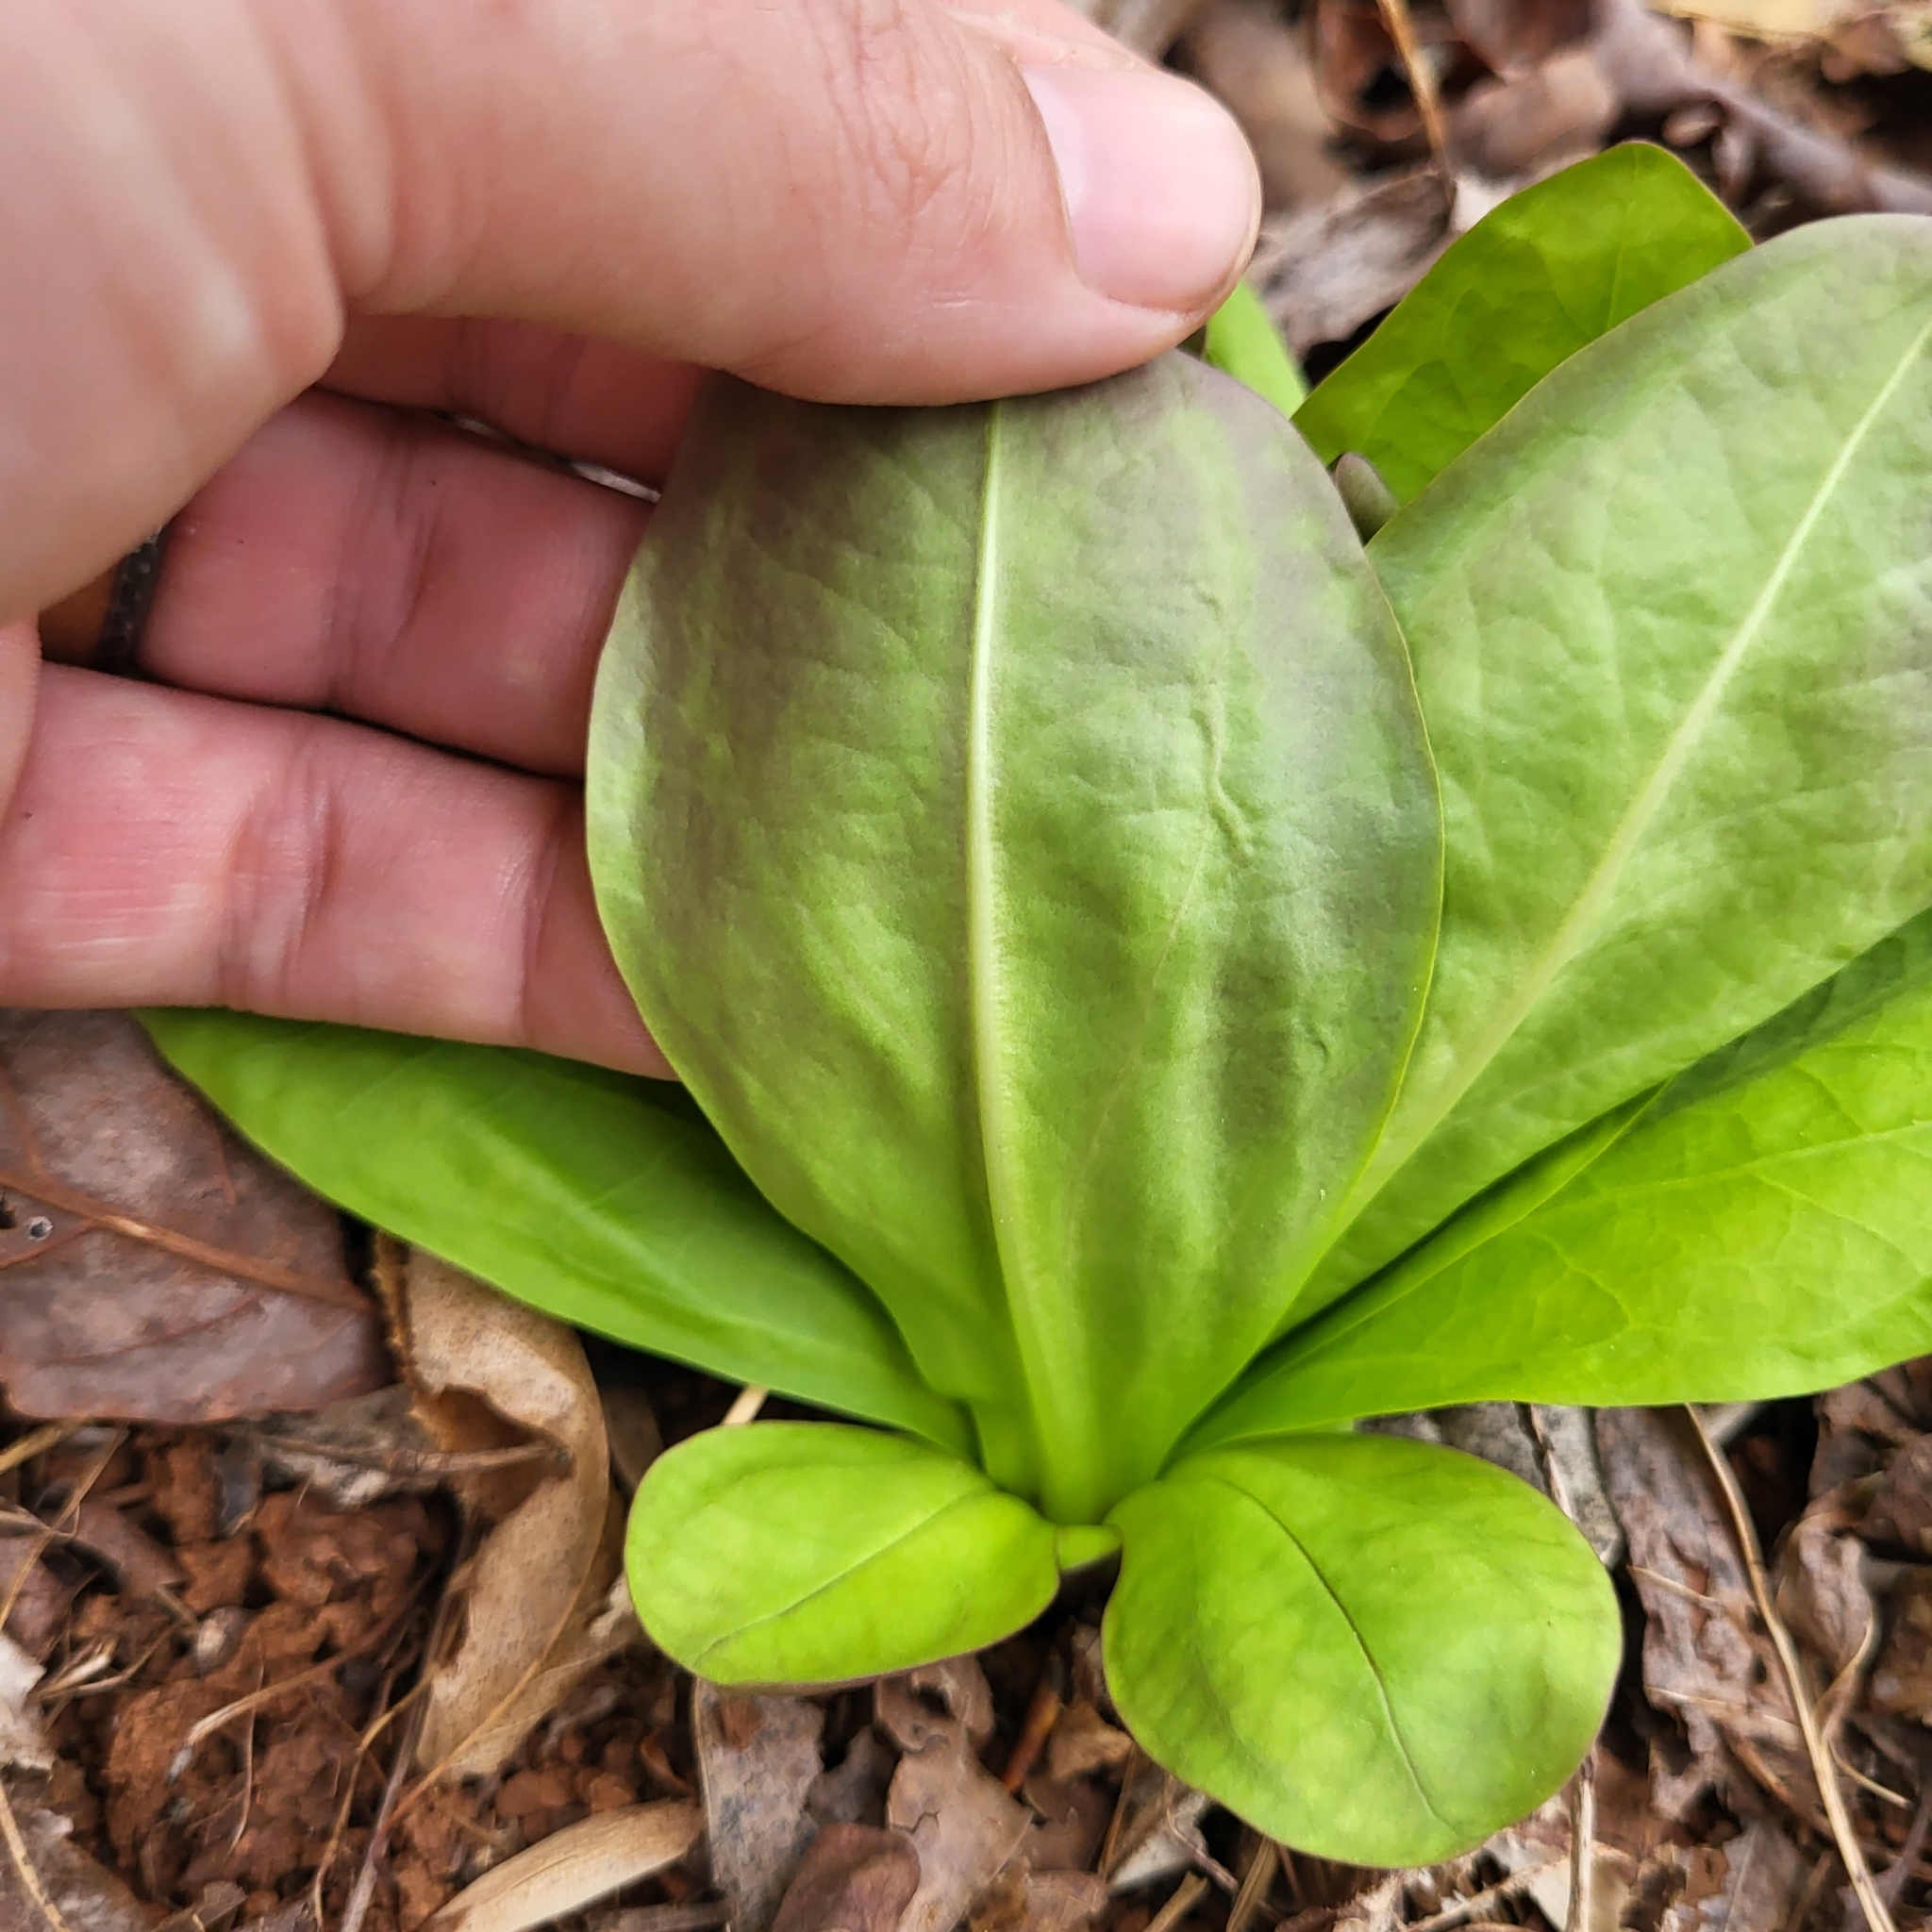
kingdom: Plantae
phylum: Tracheophyta
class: Magnoliopsida
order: Gentianales
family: Gentianaceae
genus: Frasera
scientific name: Frasera caroliniensis
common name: American columbo
